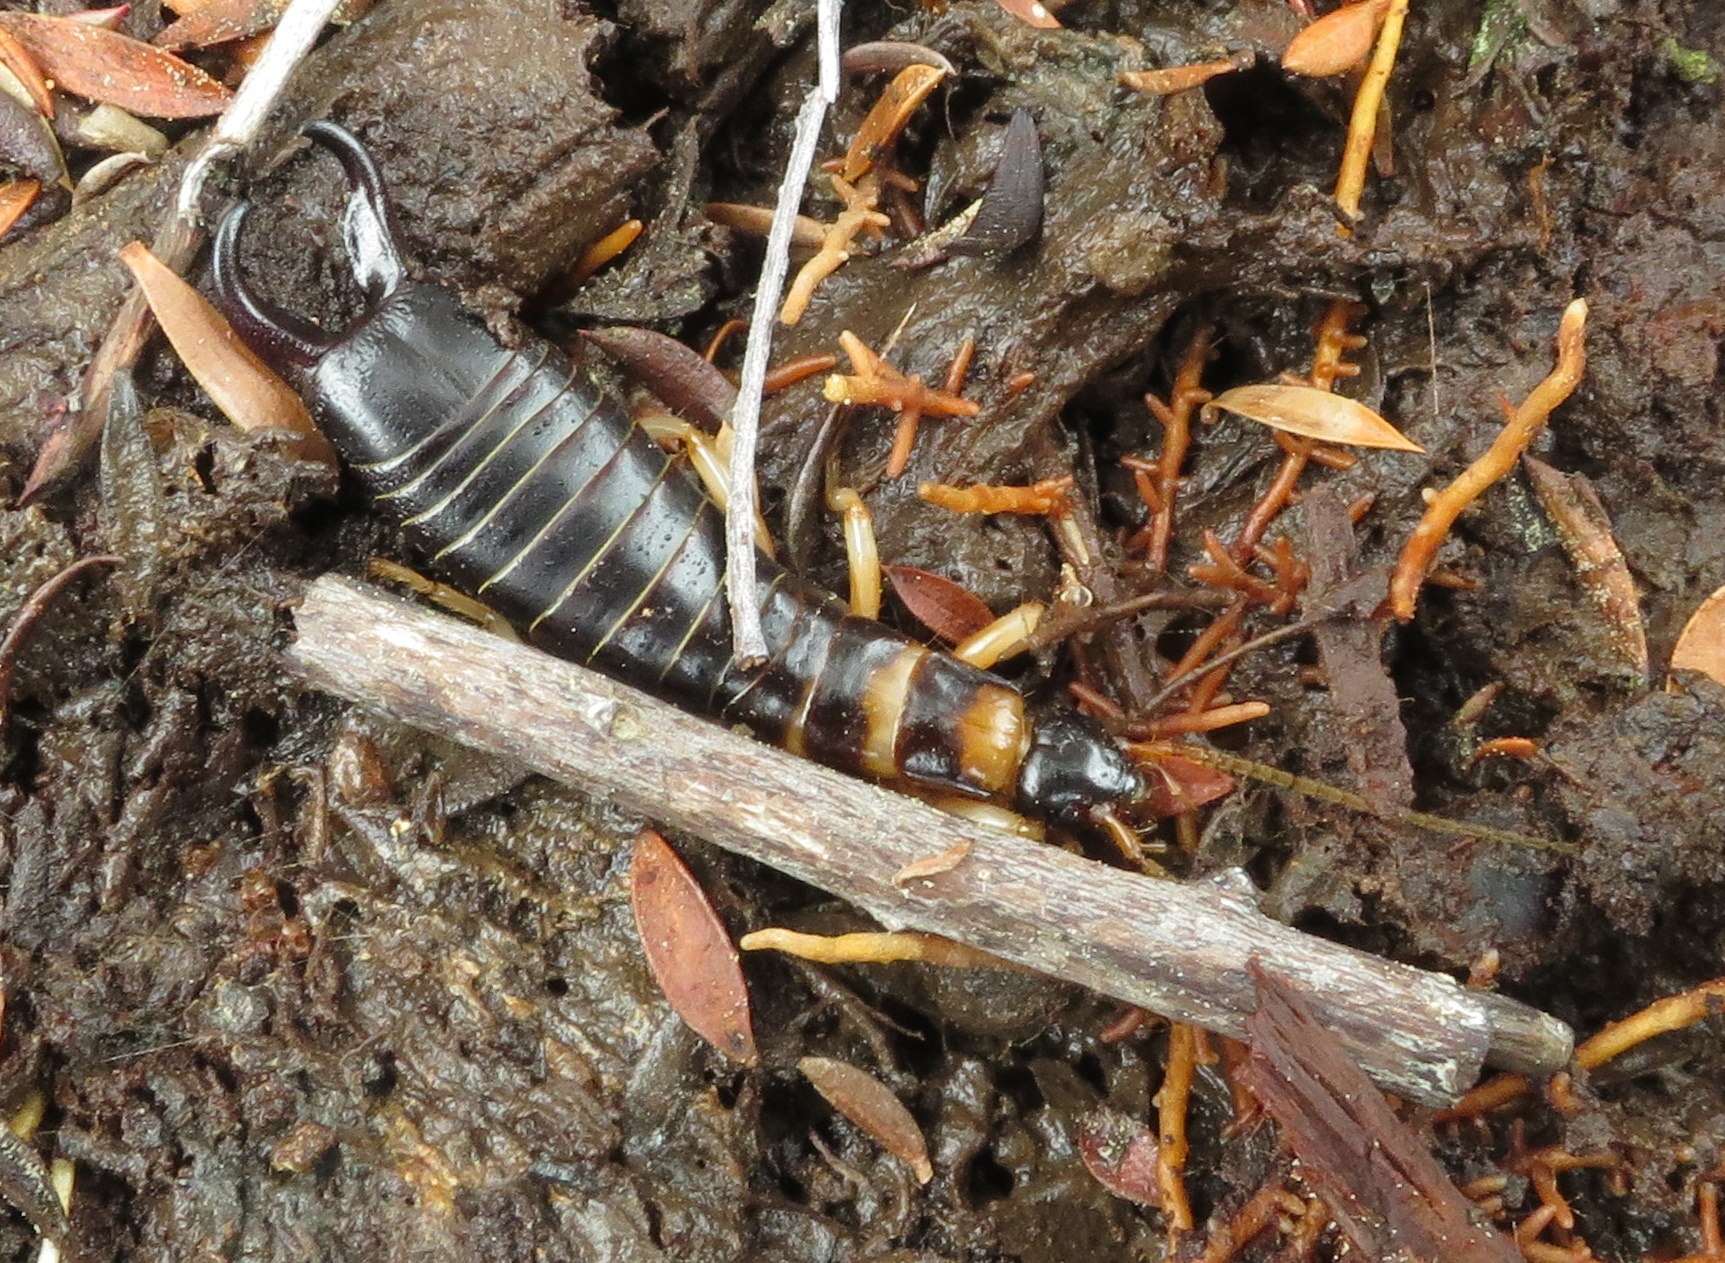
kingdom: Animalia
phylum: Arthropoda
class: Insecta
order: Dermaptera
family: Anisolabididae
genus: Anisolabis
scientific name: Anisolabis littorea
